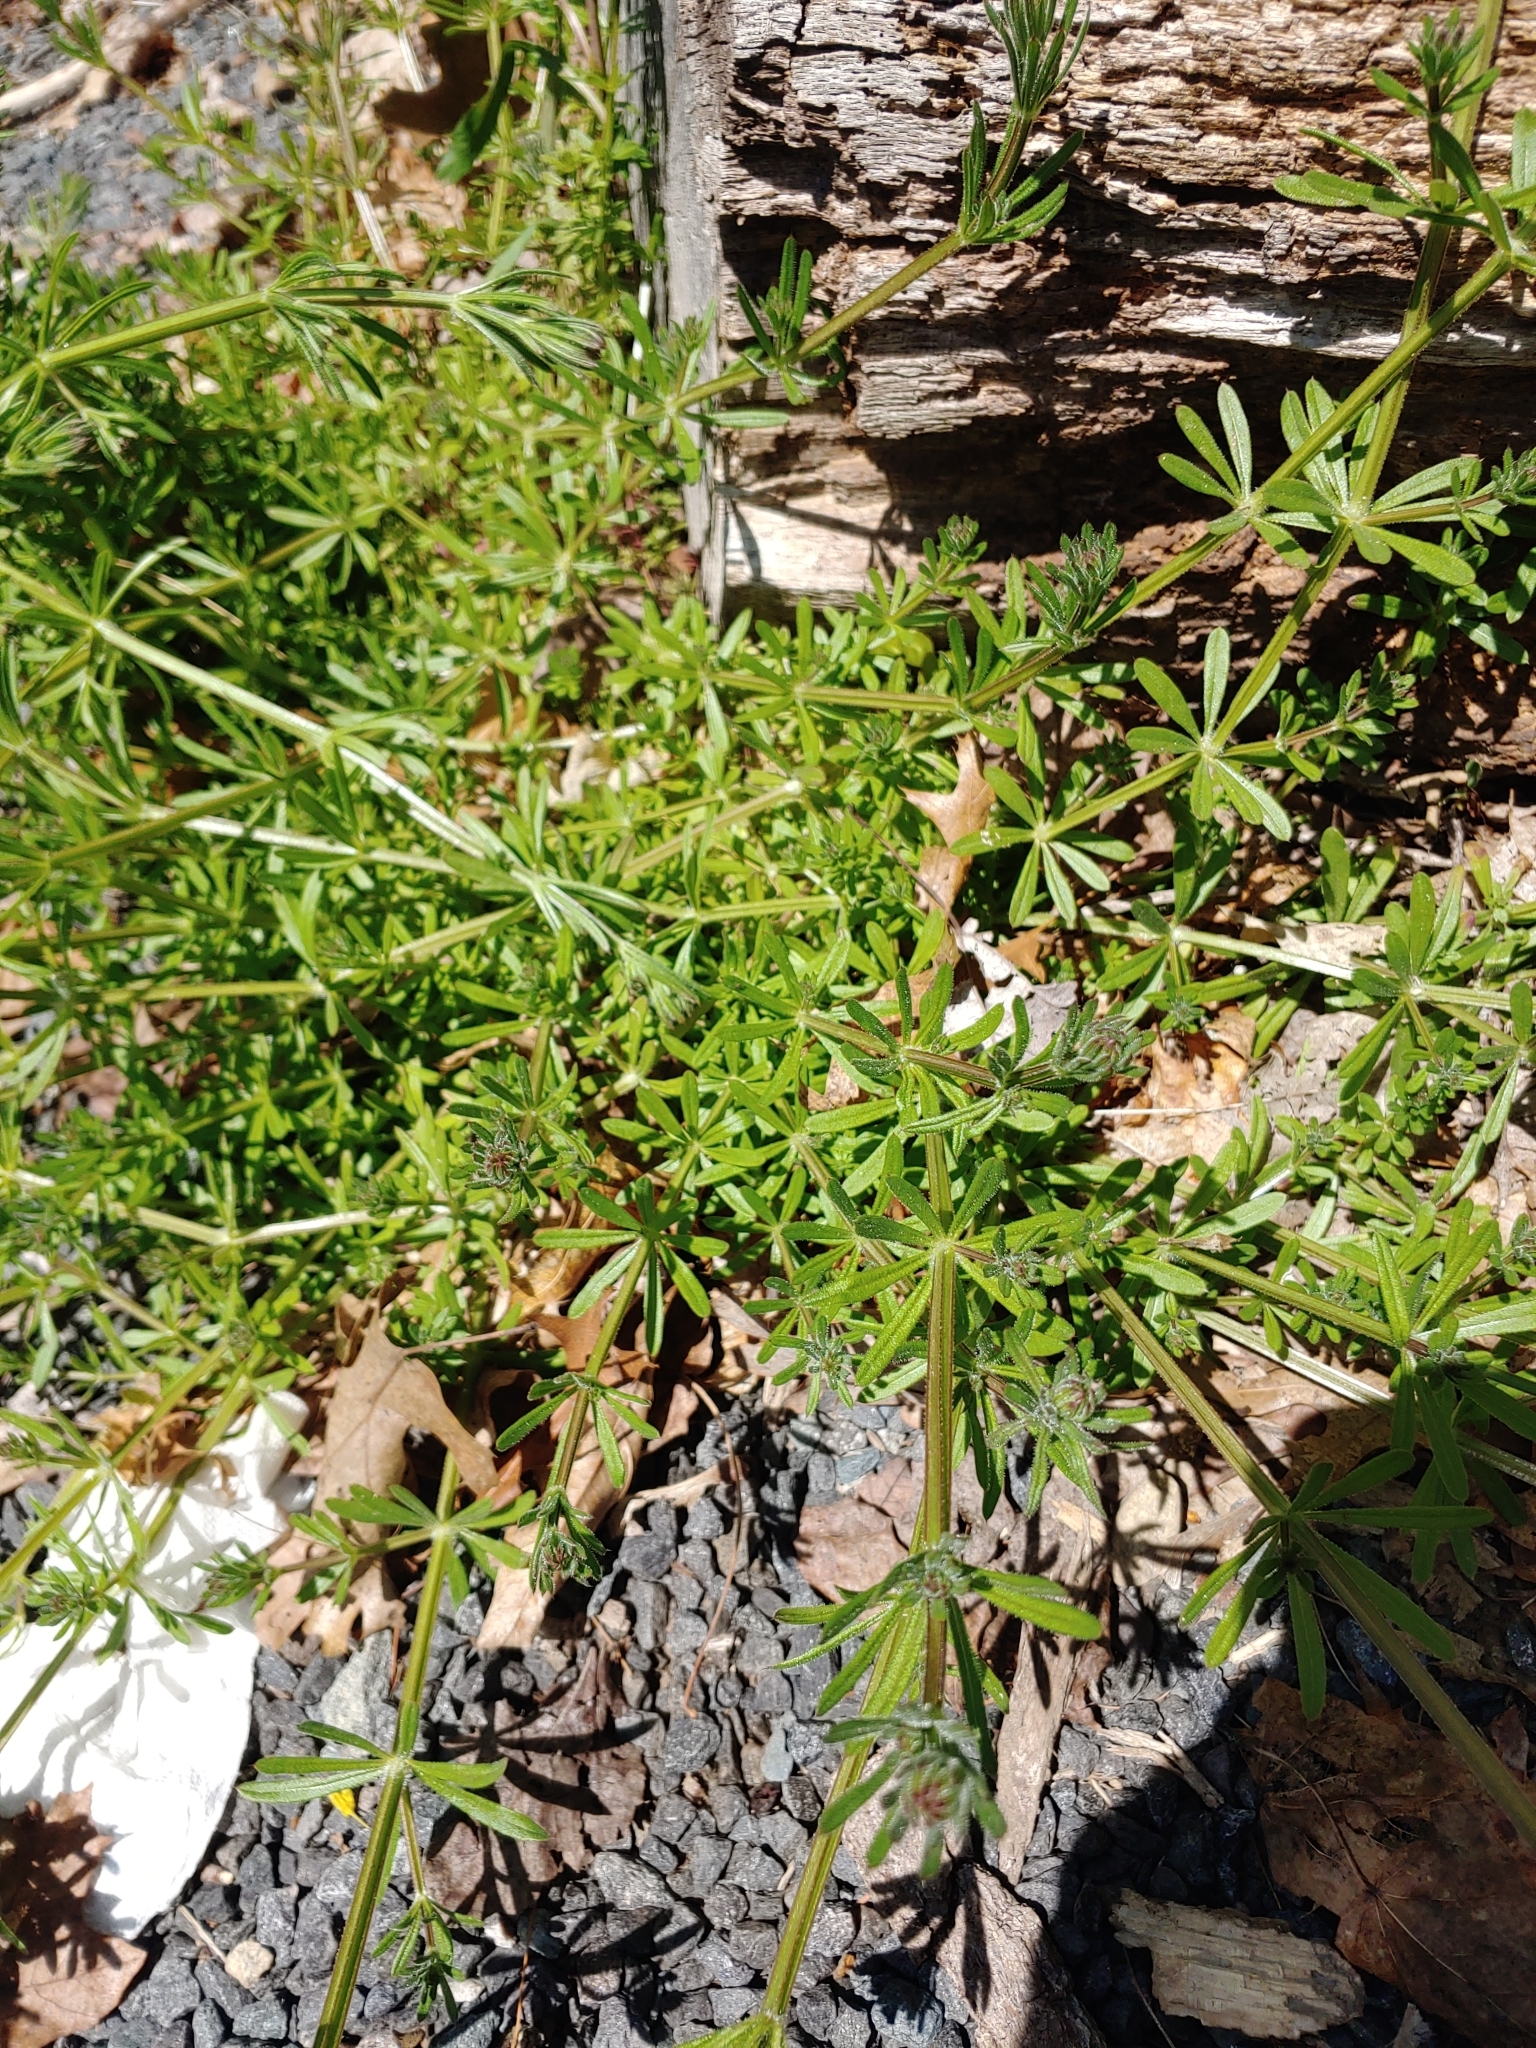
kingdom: Plantae
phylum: Tracheophyta
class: Magnoliopsida
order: Gentianales
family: Rubiaceae
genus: Galium
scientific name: Galium aparine
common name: Cleavers
